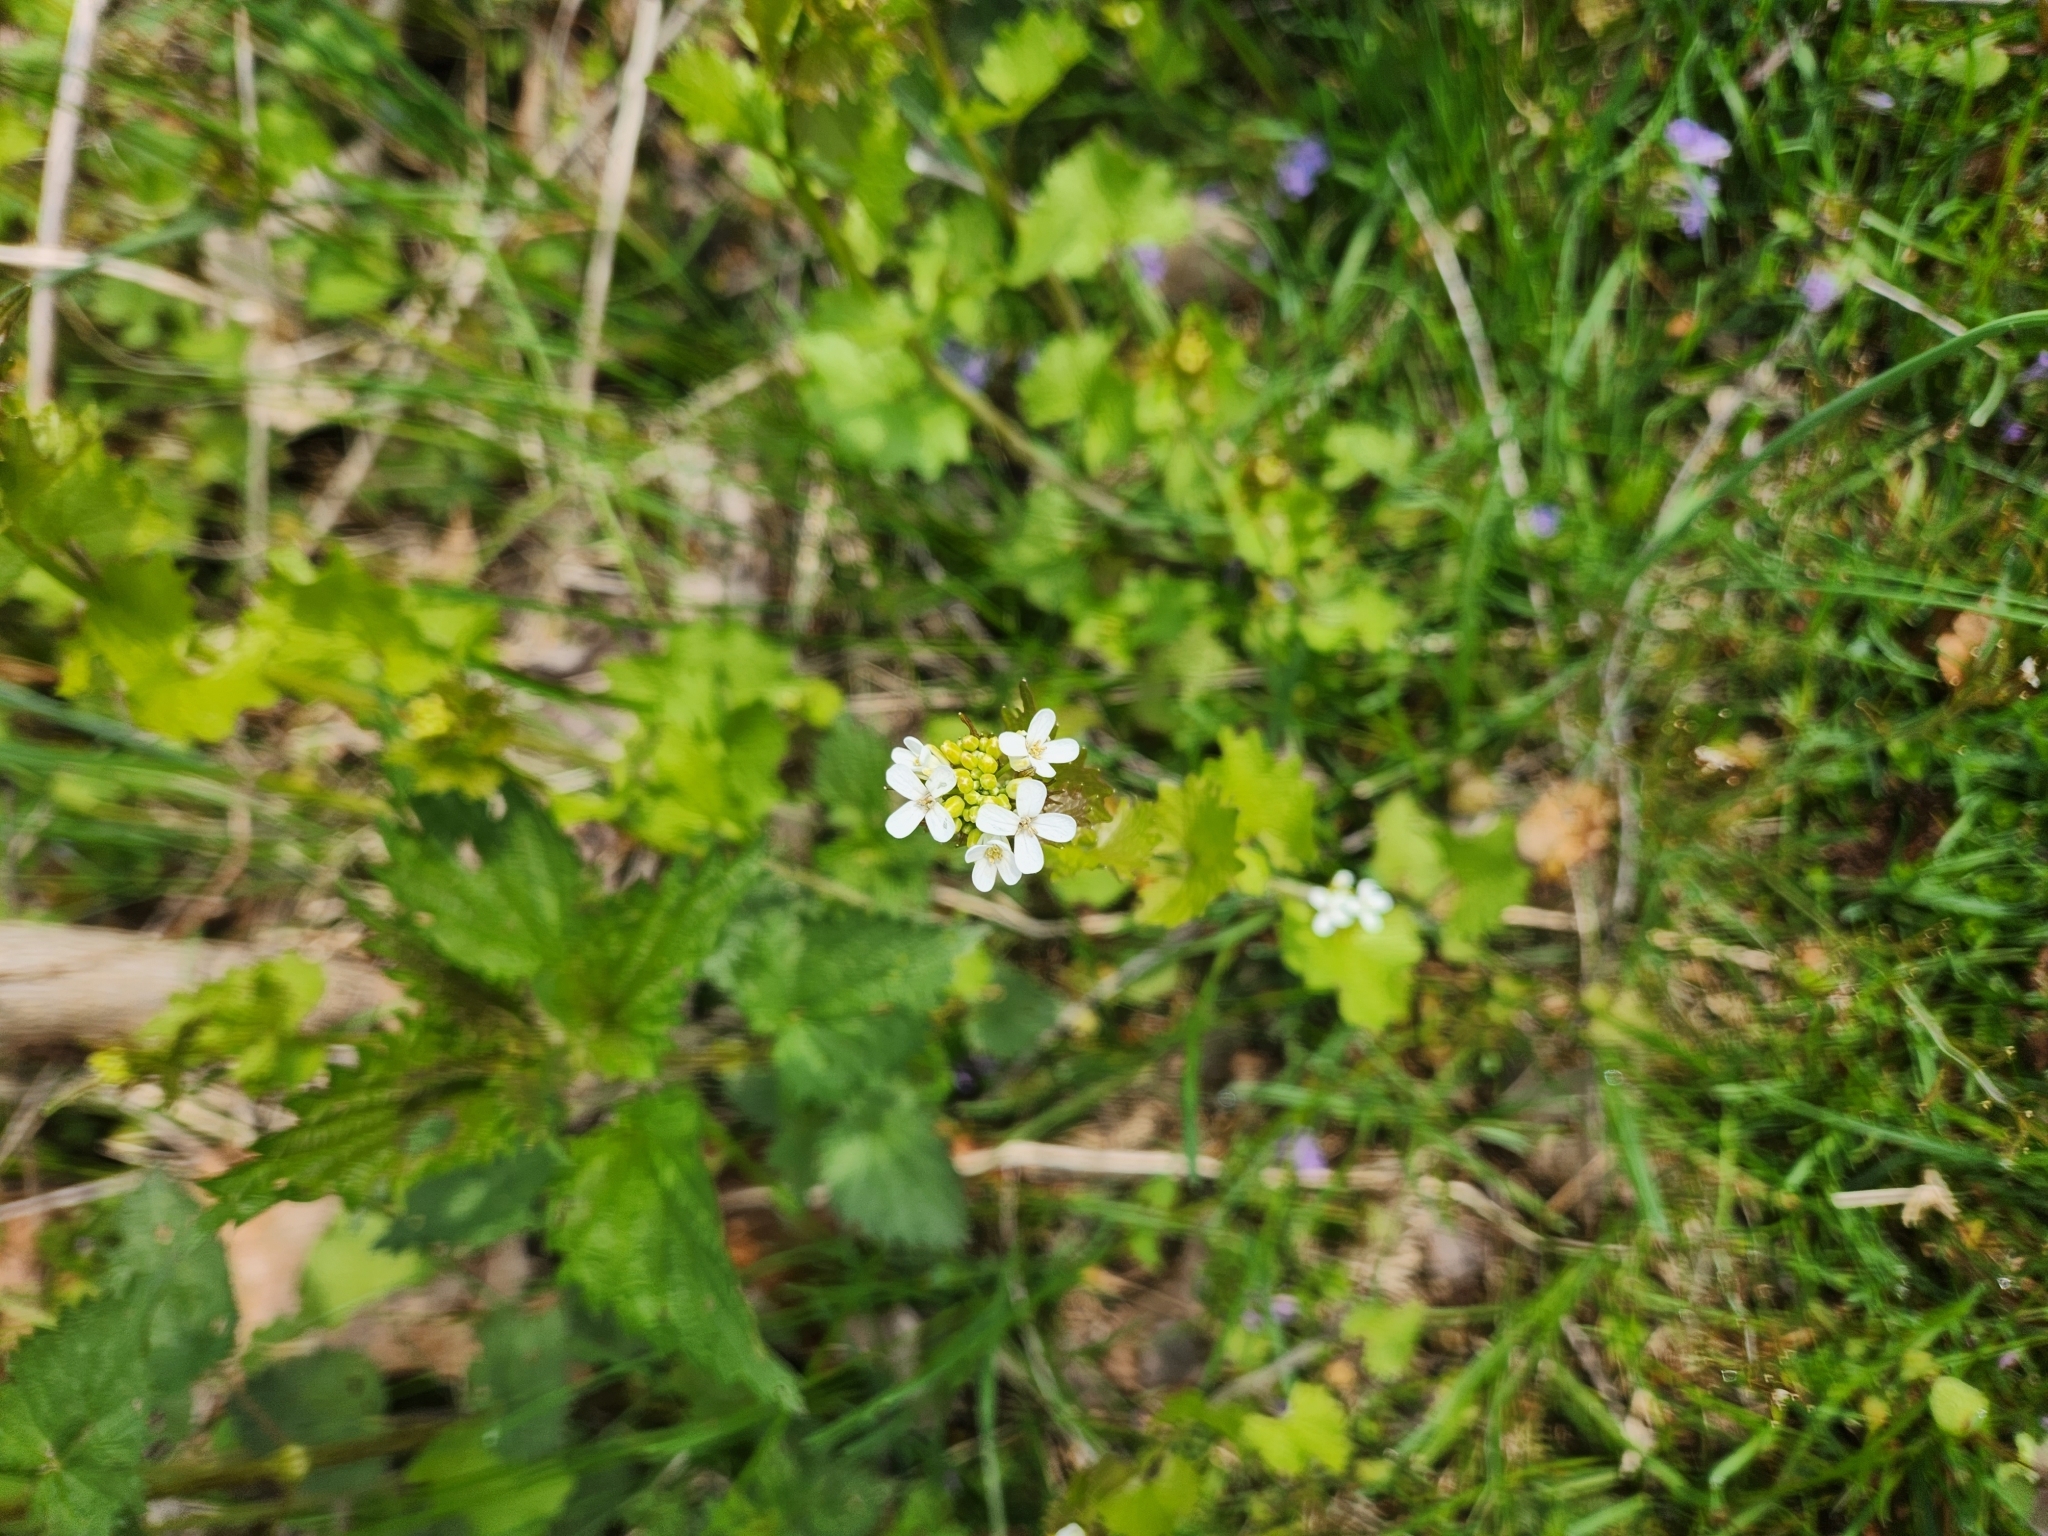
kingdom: Plantae
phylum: Tracheophyta
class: Magnoliopsida
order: Brassicales
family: Brassicaceae
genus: Alliaria
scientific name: Alliaria petiolata
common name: Garlic mustard
